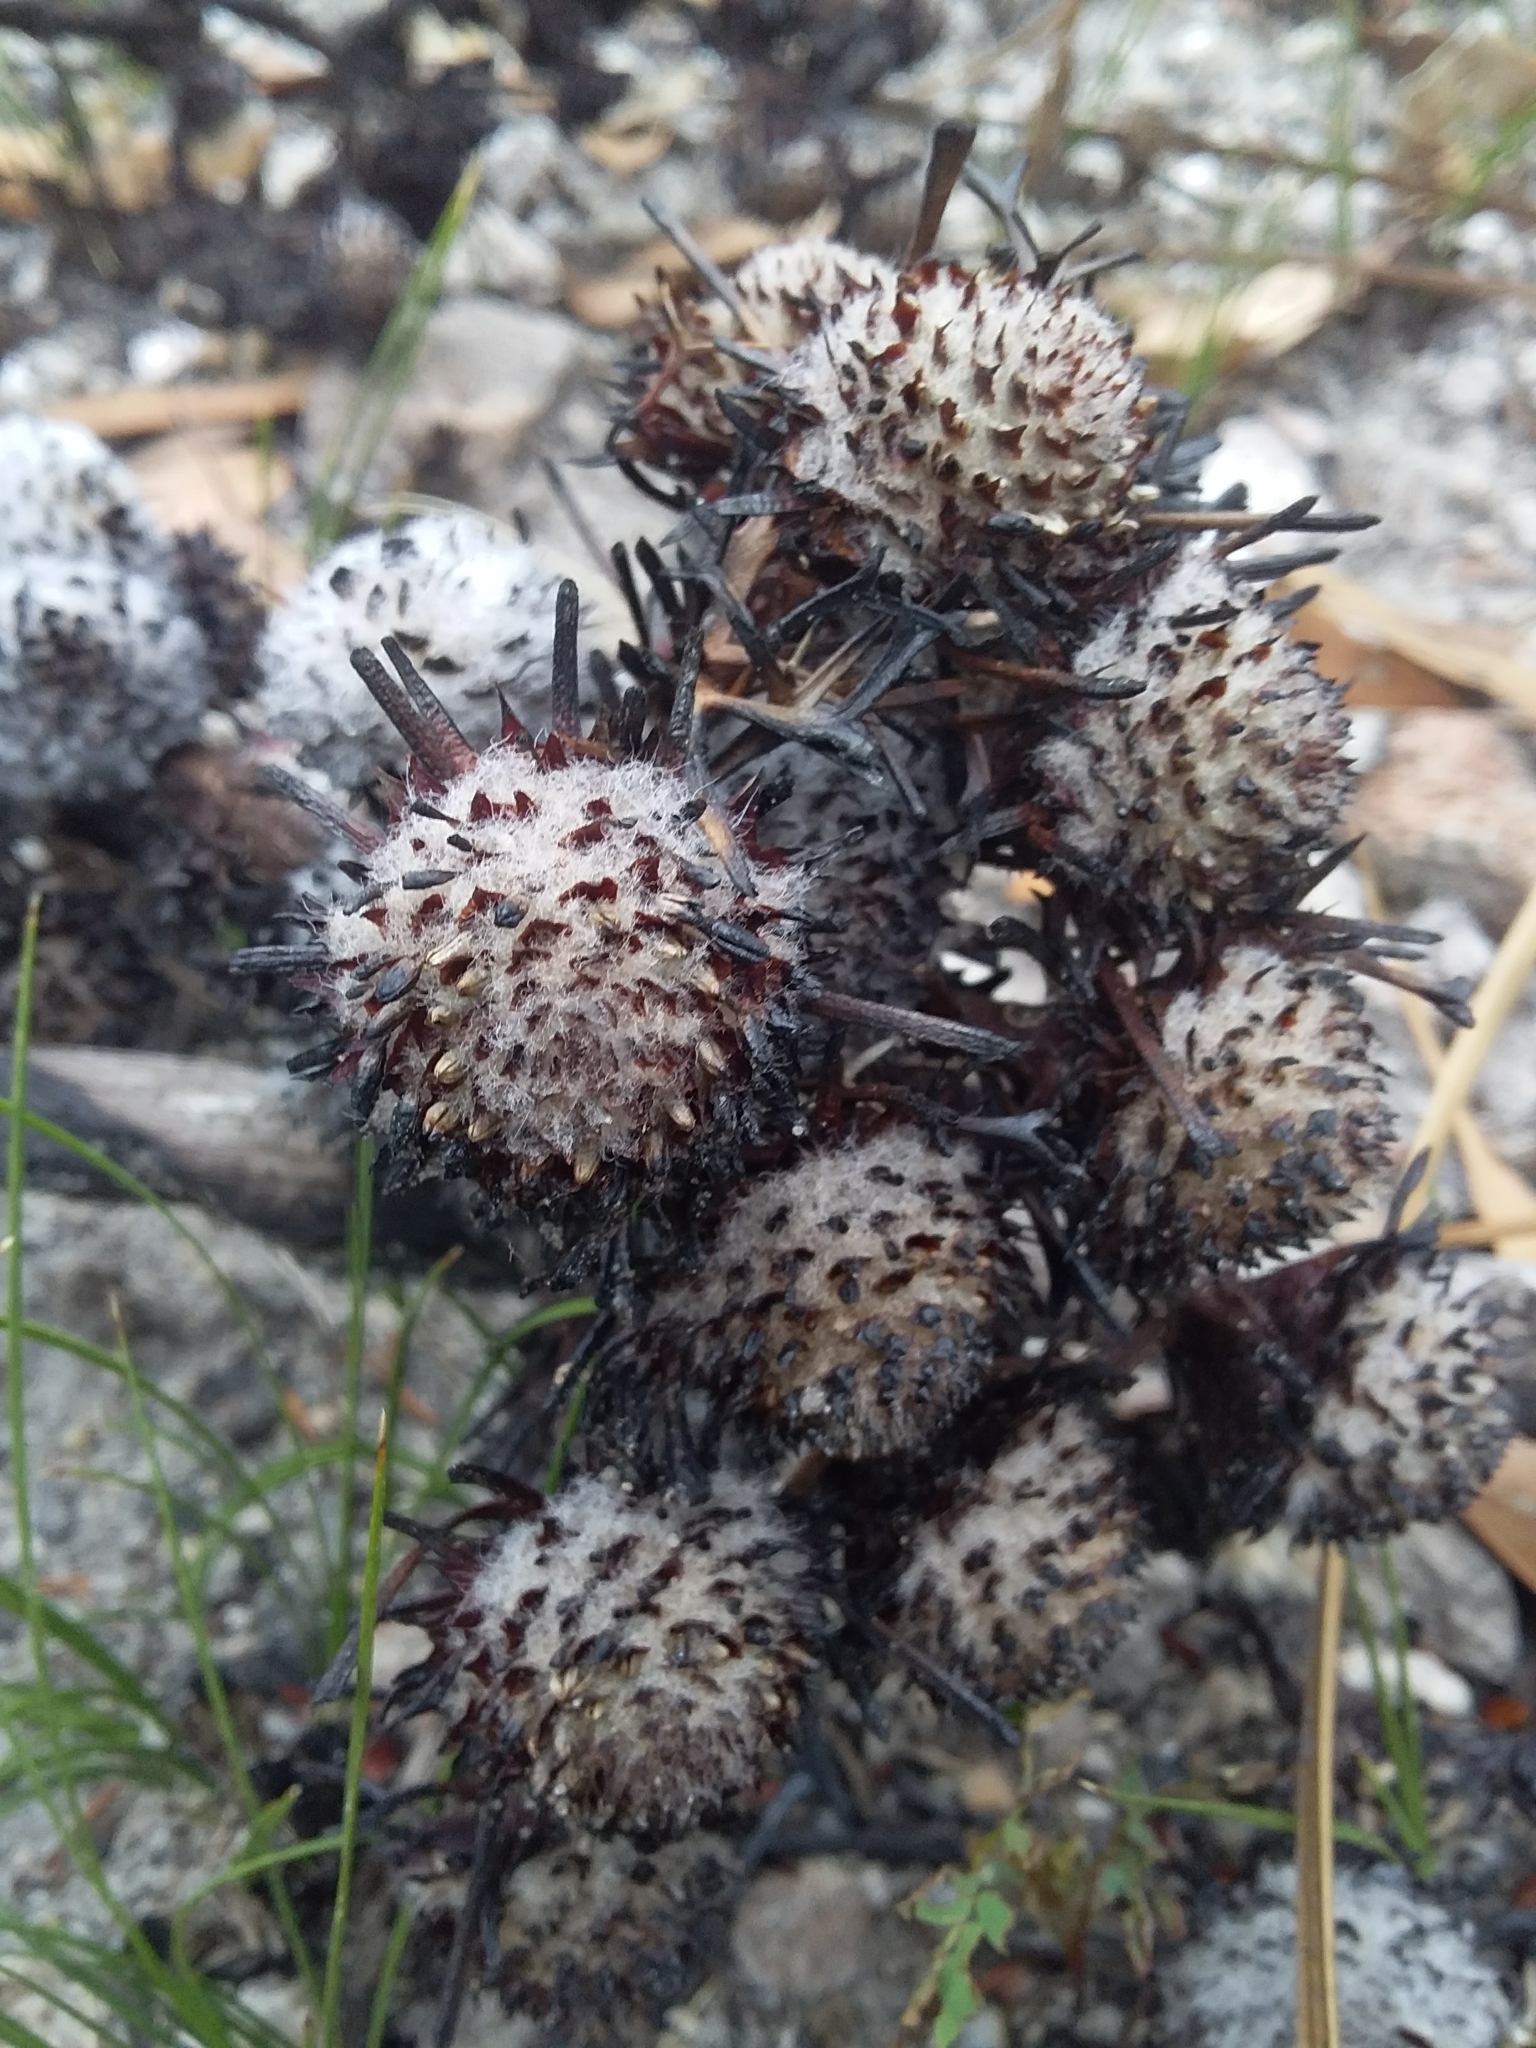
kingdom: Plantae
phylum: Tracheophyta
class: Magnoliopsida
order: Proteales
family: Proteaceae
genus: Isopogon
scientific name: Isopogon ceratophyllus
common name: Horny cone-bush
